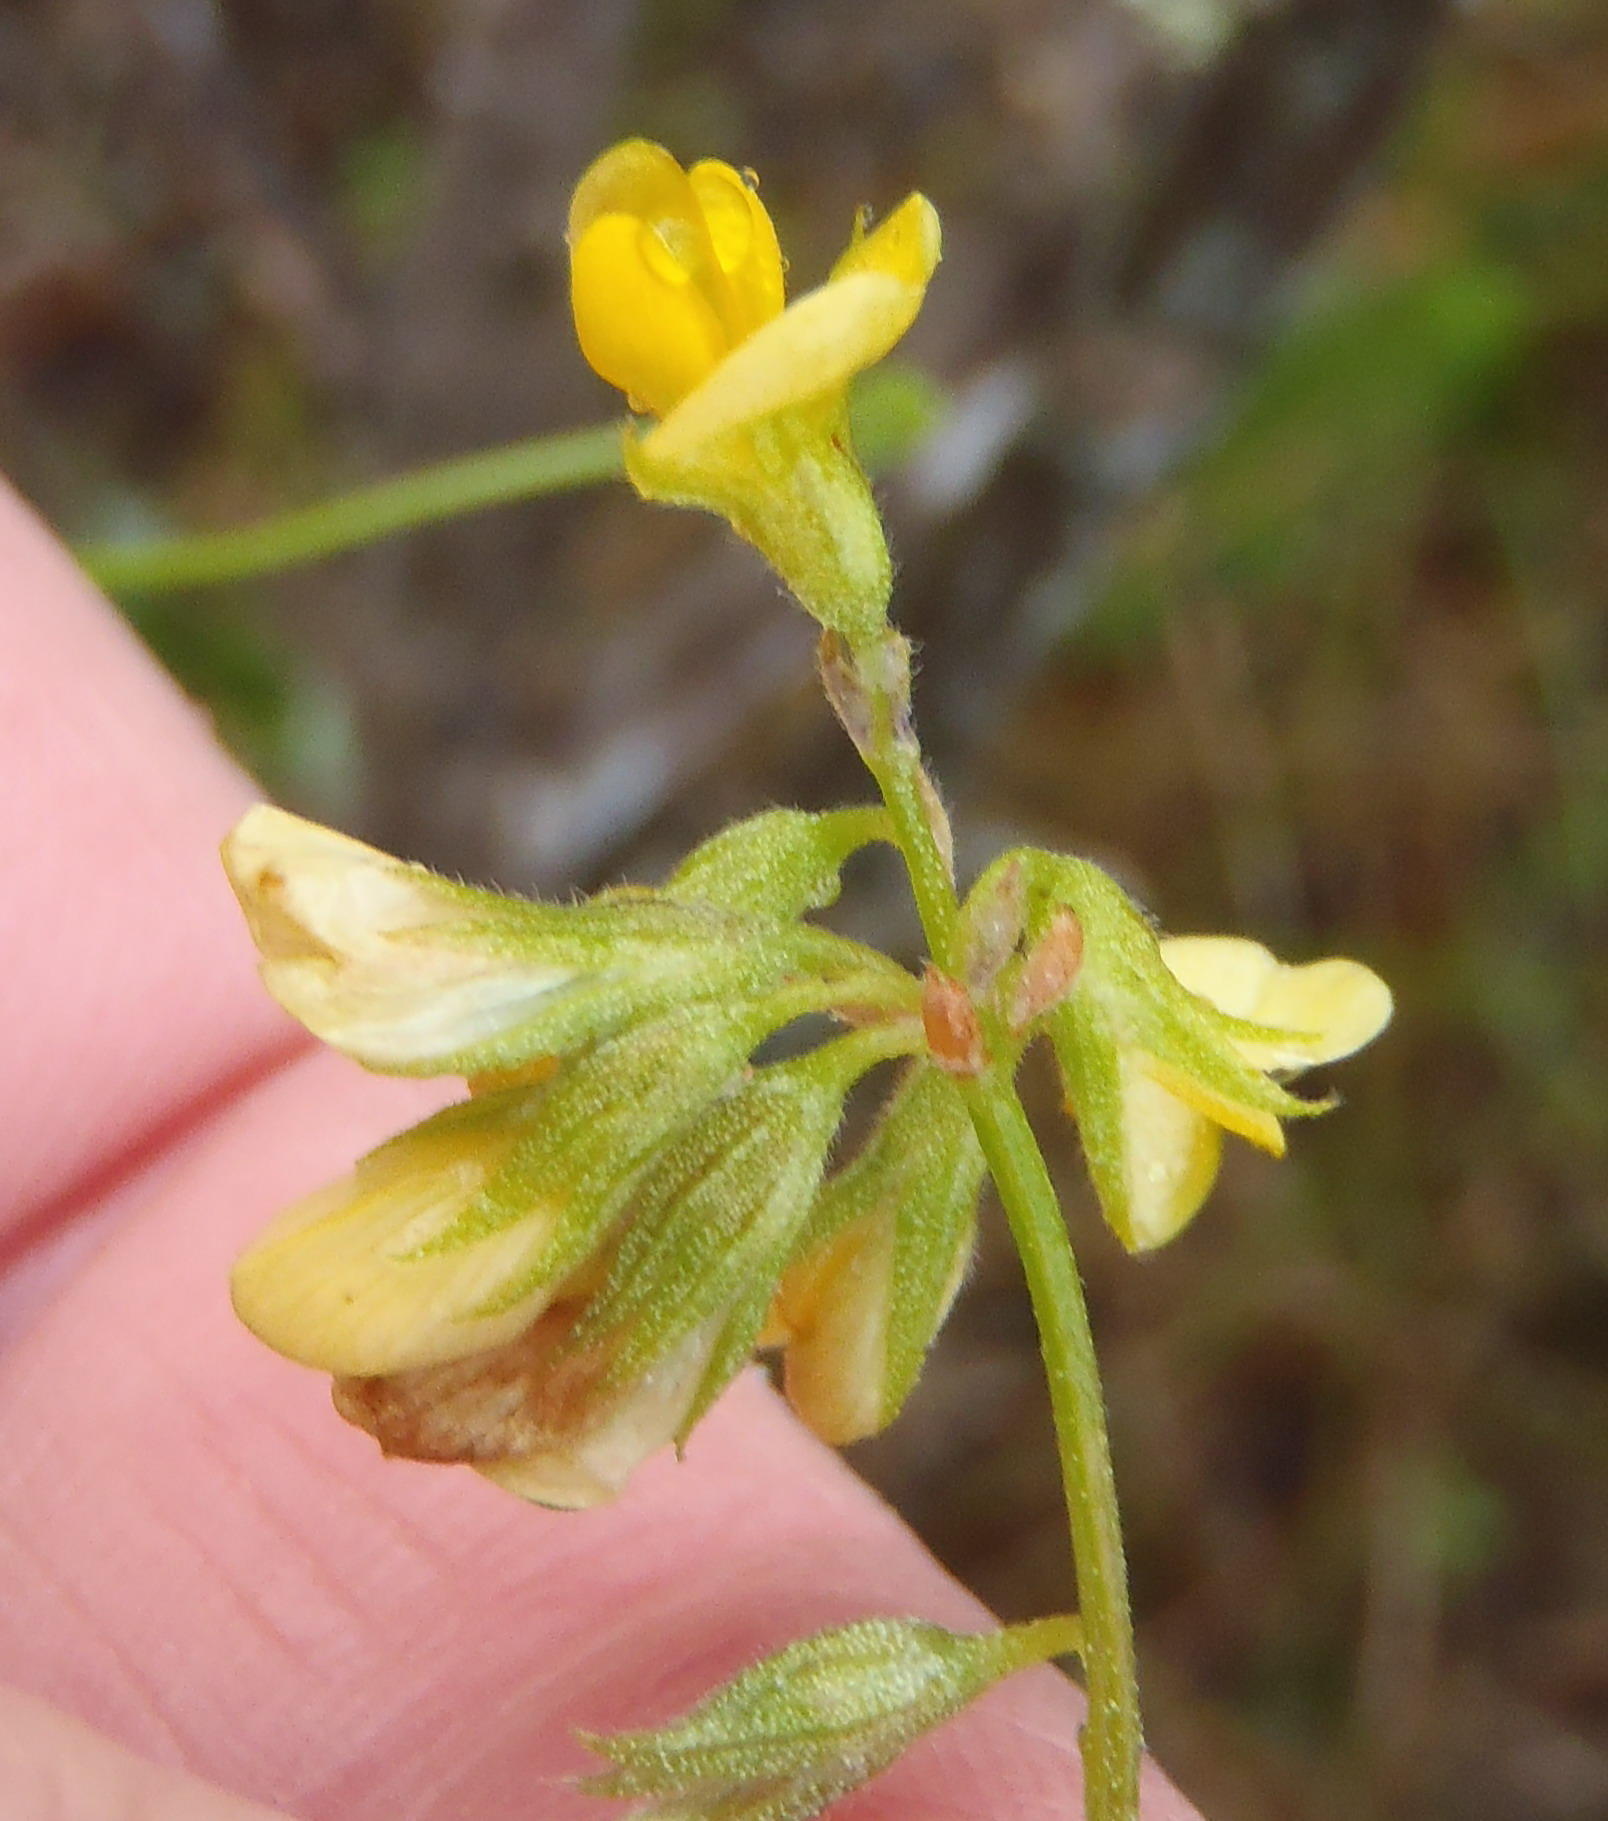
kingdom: Plantae
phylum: Tracheophyta
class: Magnoliopsida
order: Fabales
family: Fabaceae
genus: Rhynchosia
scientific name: Rhynchosia leucoscias
